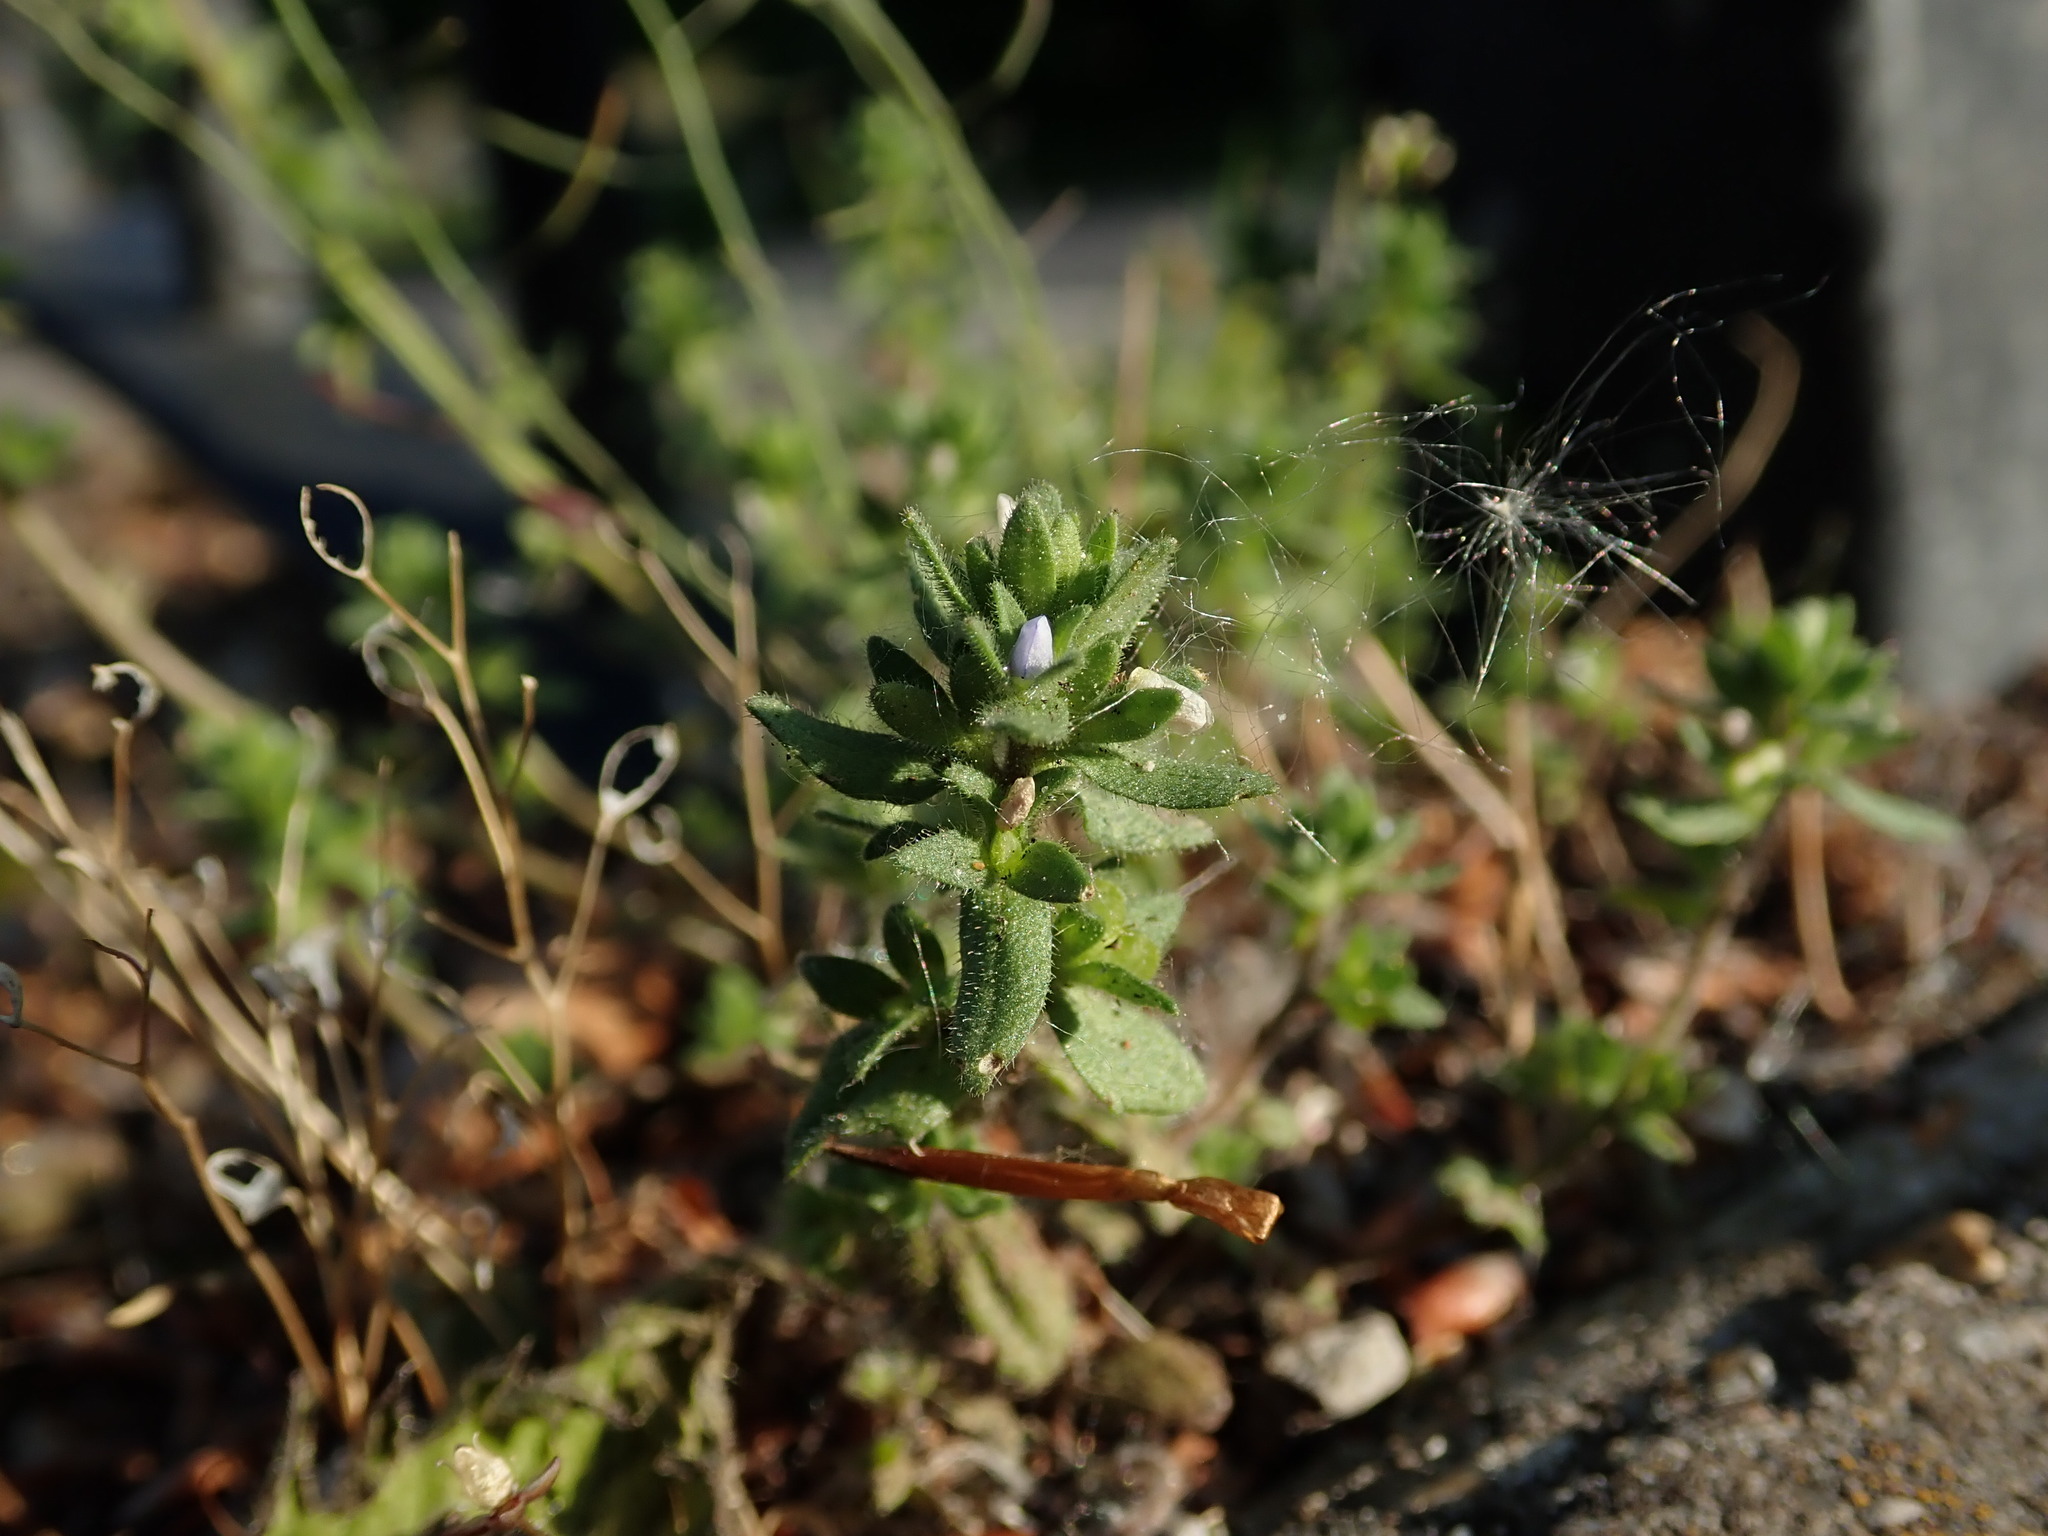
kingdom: Plantae
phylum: Tracheophyta
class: Magnoliopsida
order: Lamiales
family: Plantaginaceae
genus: Veronica
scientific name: Veronica arvensis
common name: Corn speedwell
